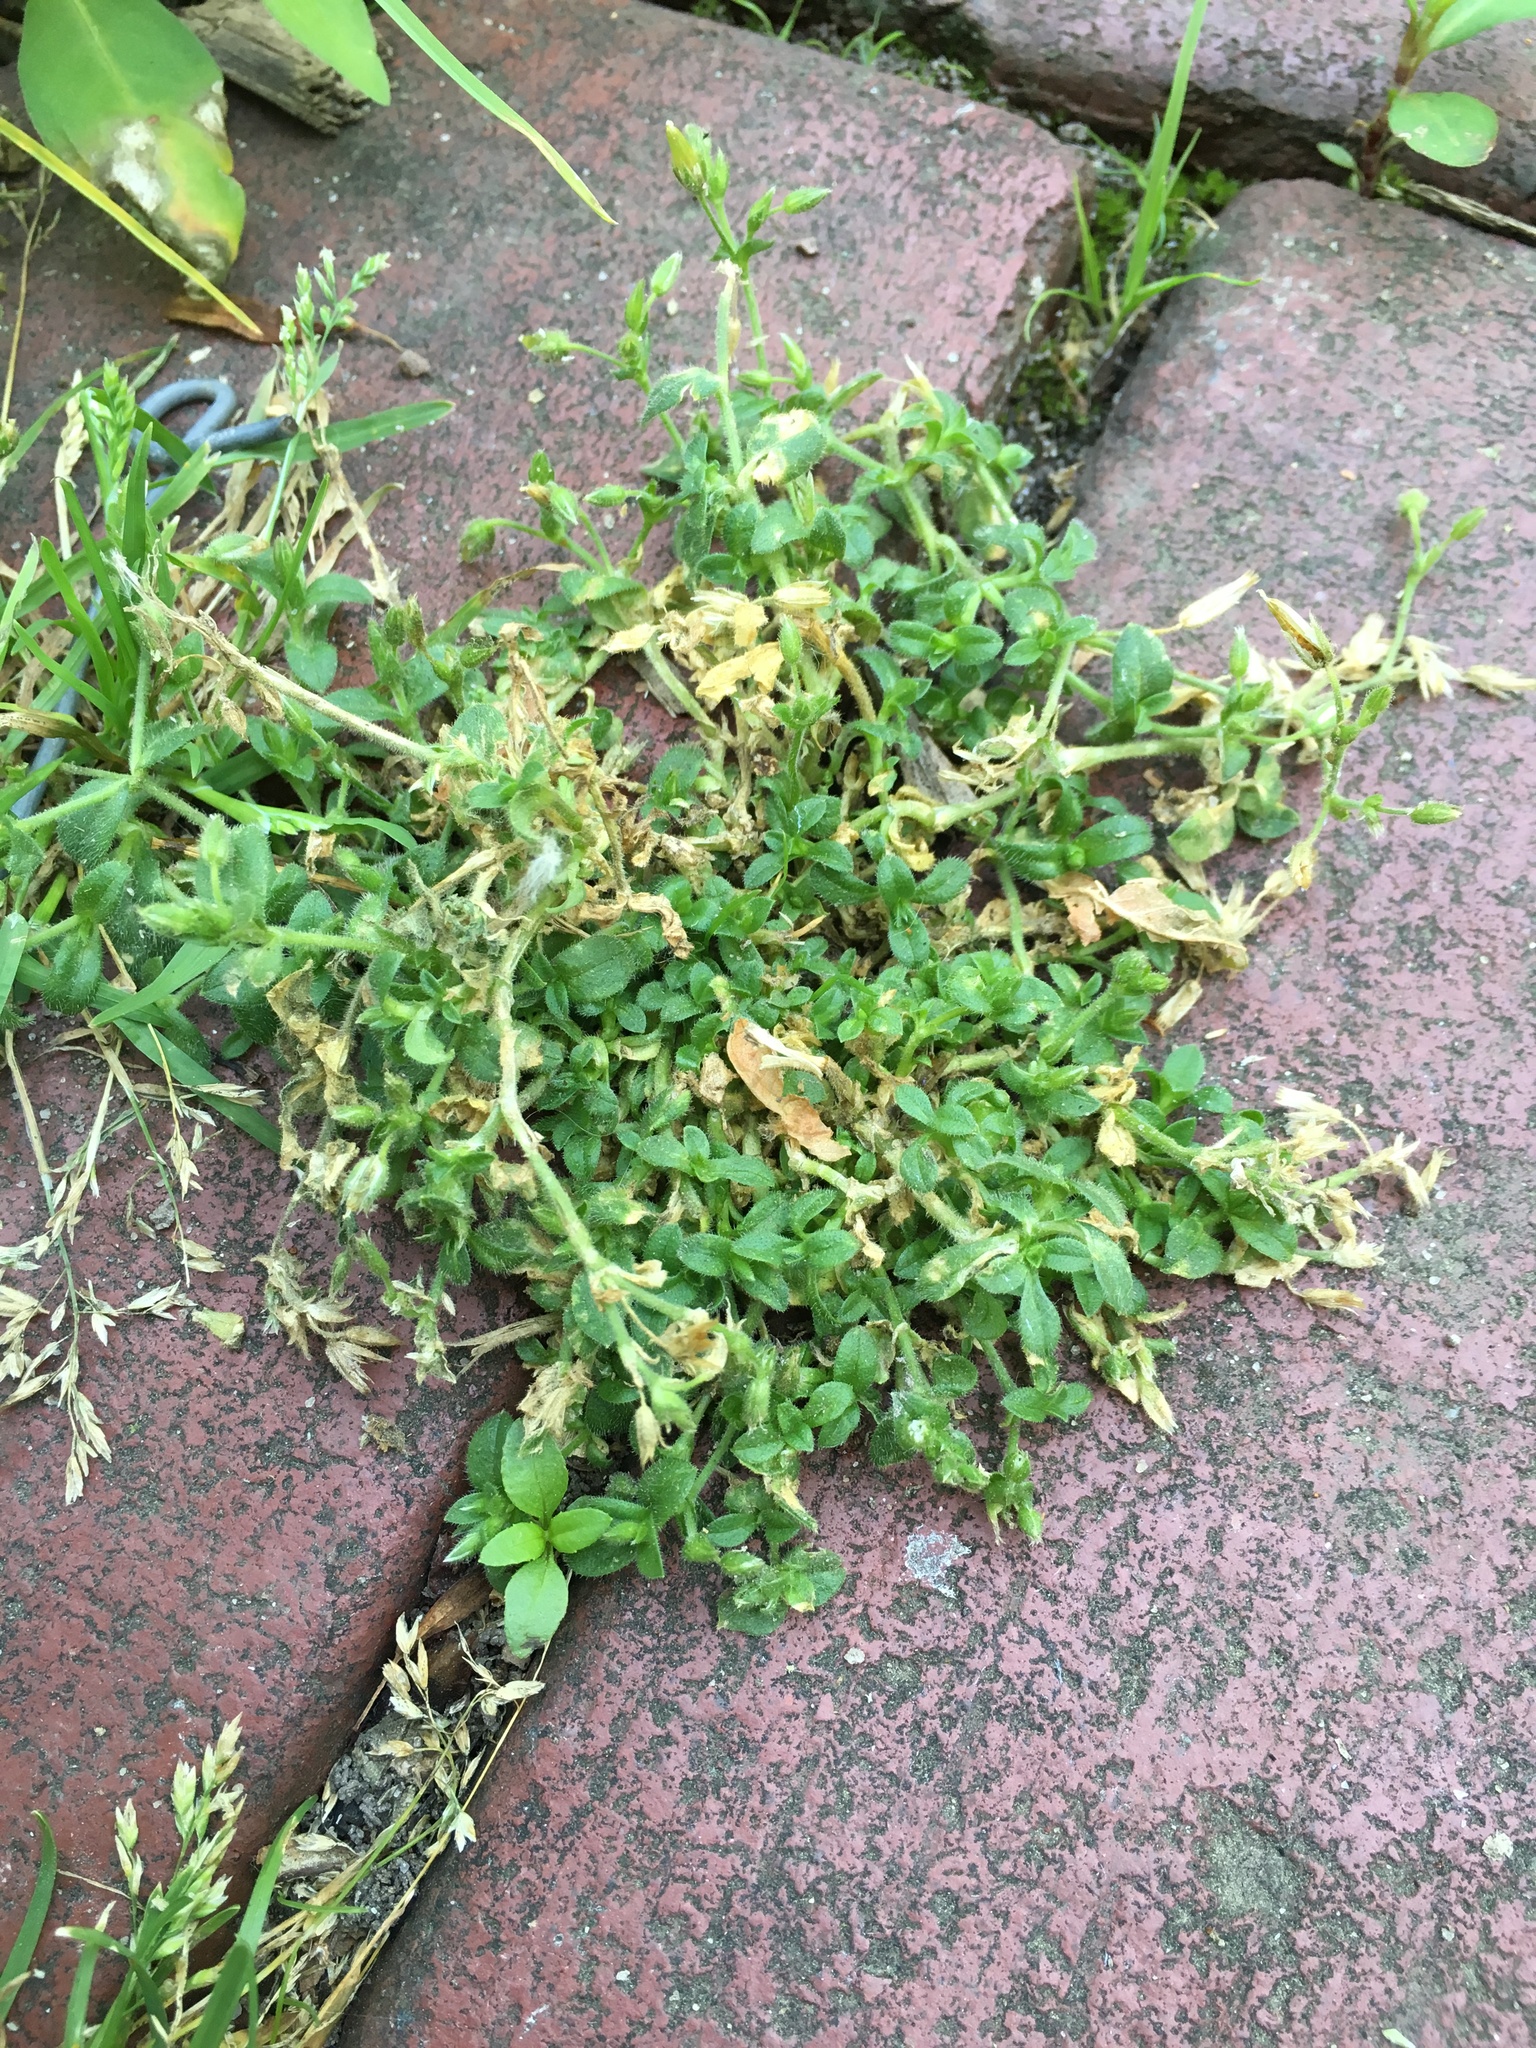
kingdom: Plantae
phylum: Tracheophyta
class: Magnoliopsida
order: Caryophyllales
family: Caryophyllaceae
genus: Cerastium
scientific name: Cerastium fontanum
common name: Common mouse-ear
